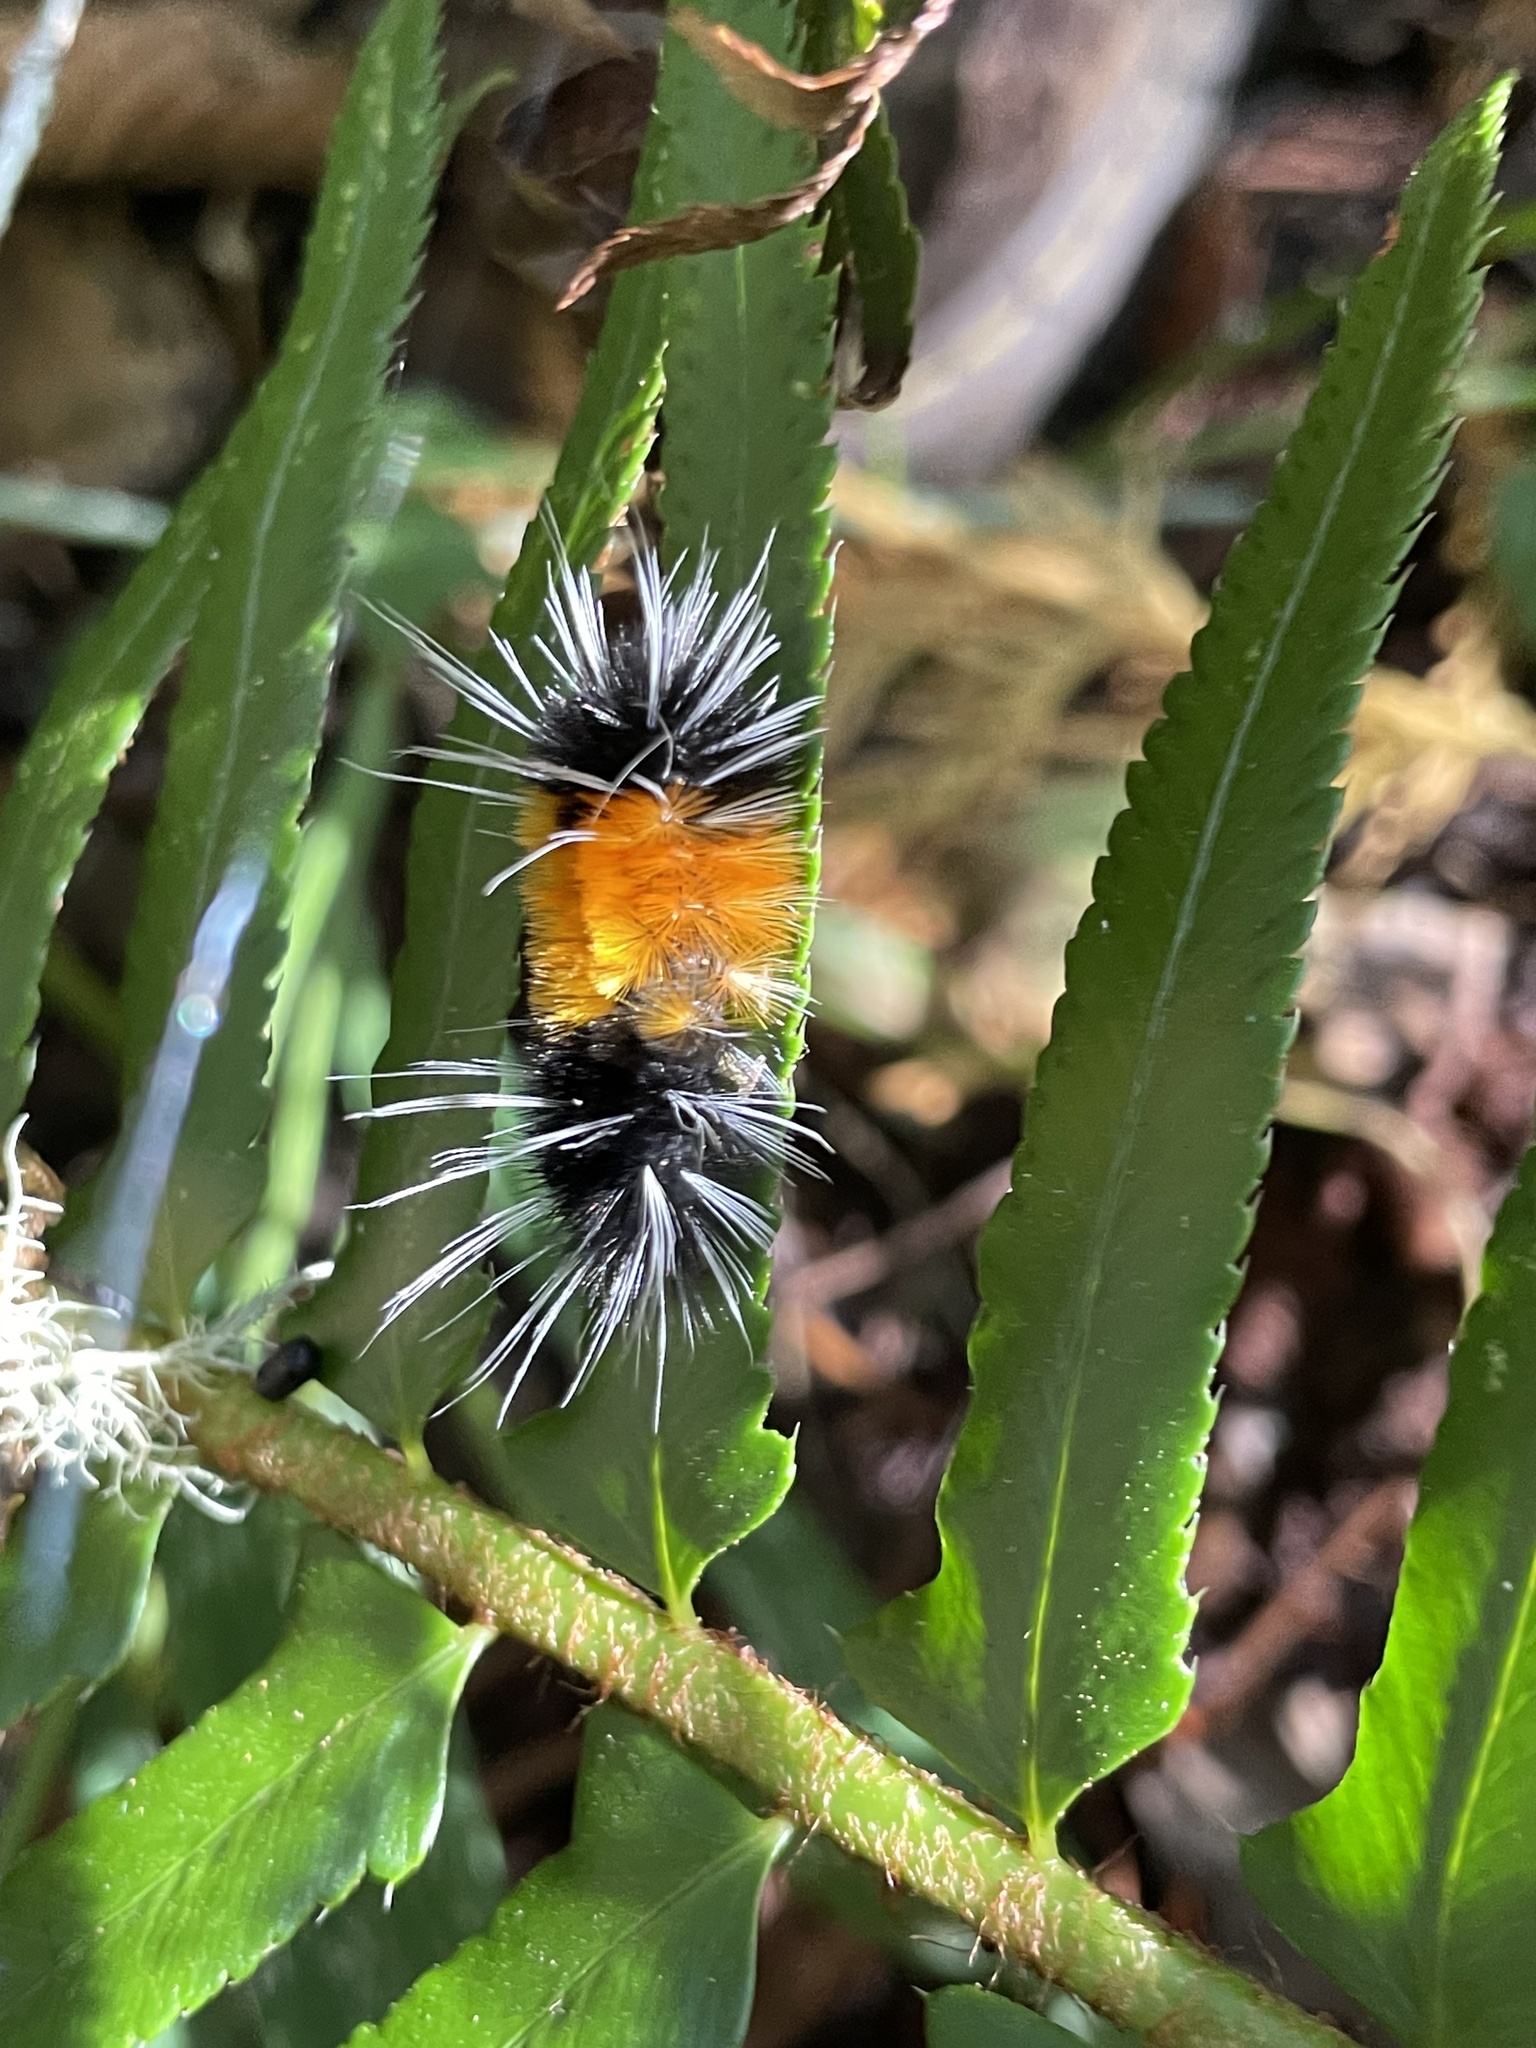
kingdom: Animalia
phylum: Arthropoda
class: Insecta
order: Lepidoptera
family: Erebidae
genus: Lophocampa
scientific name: Lophocampa maculata
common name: Spotted tussock moth
